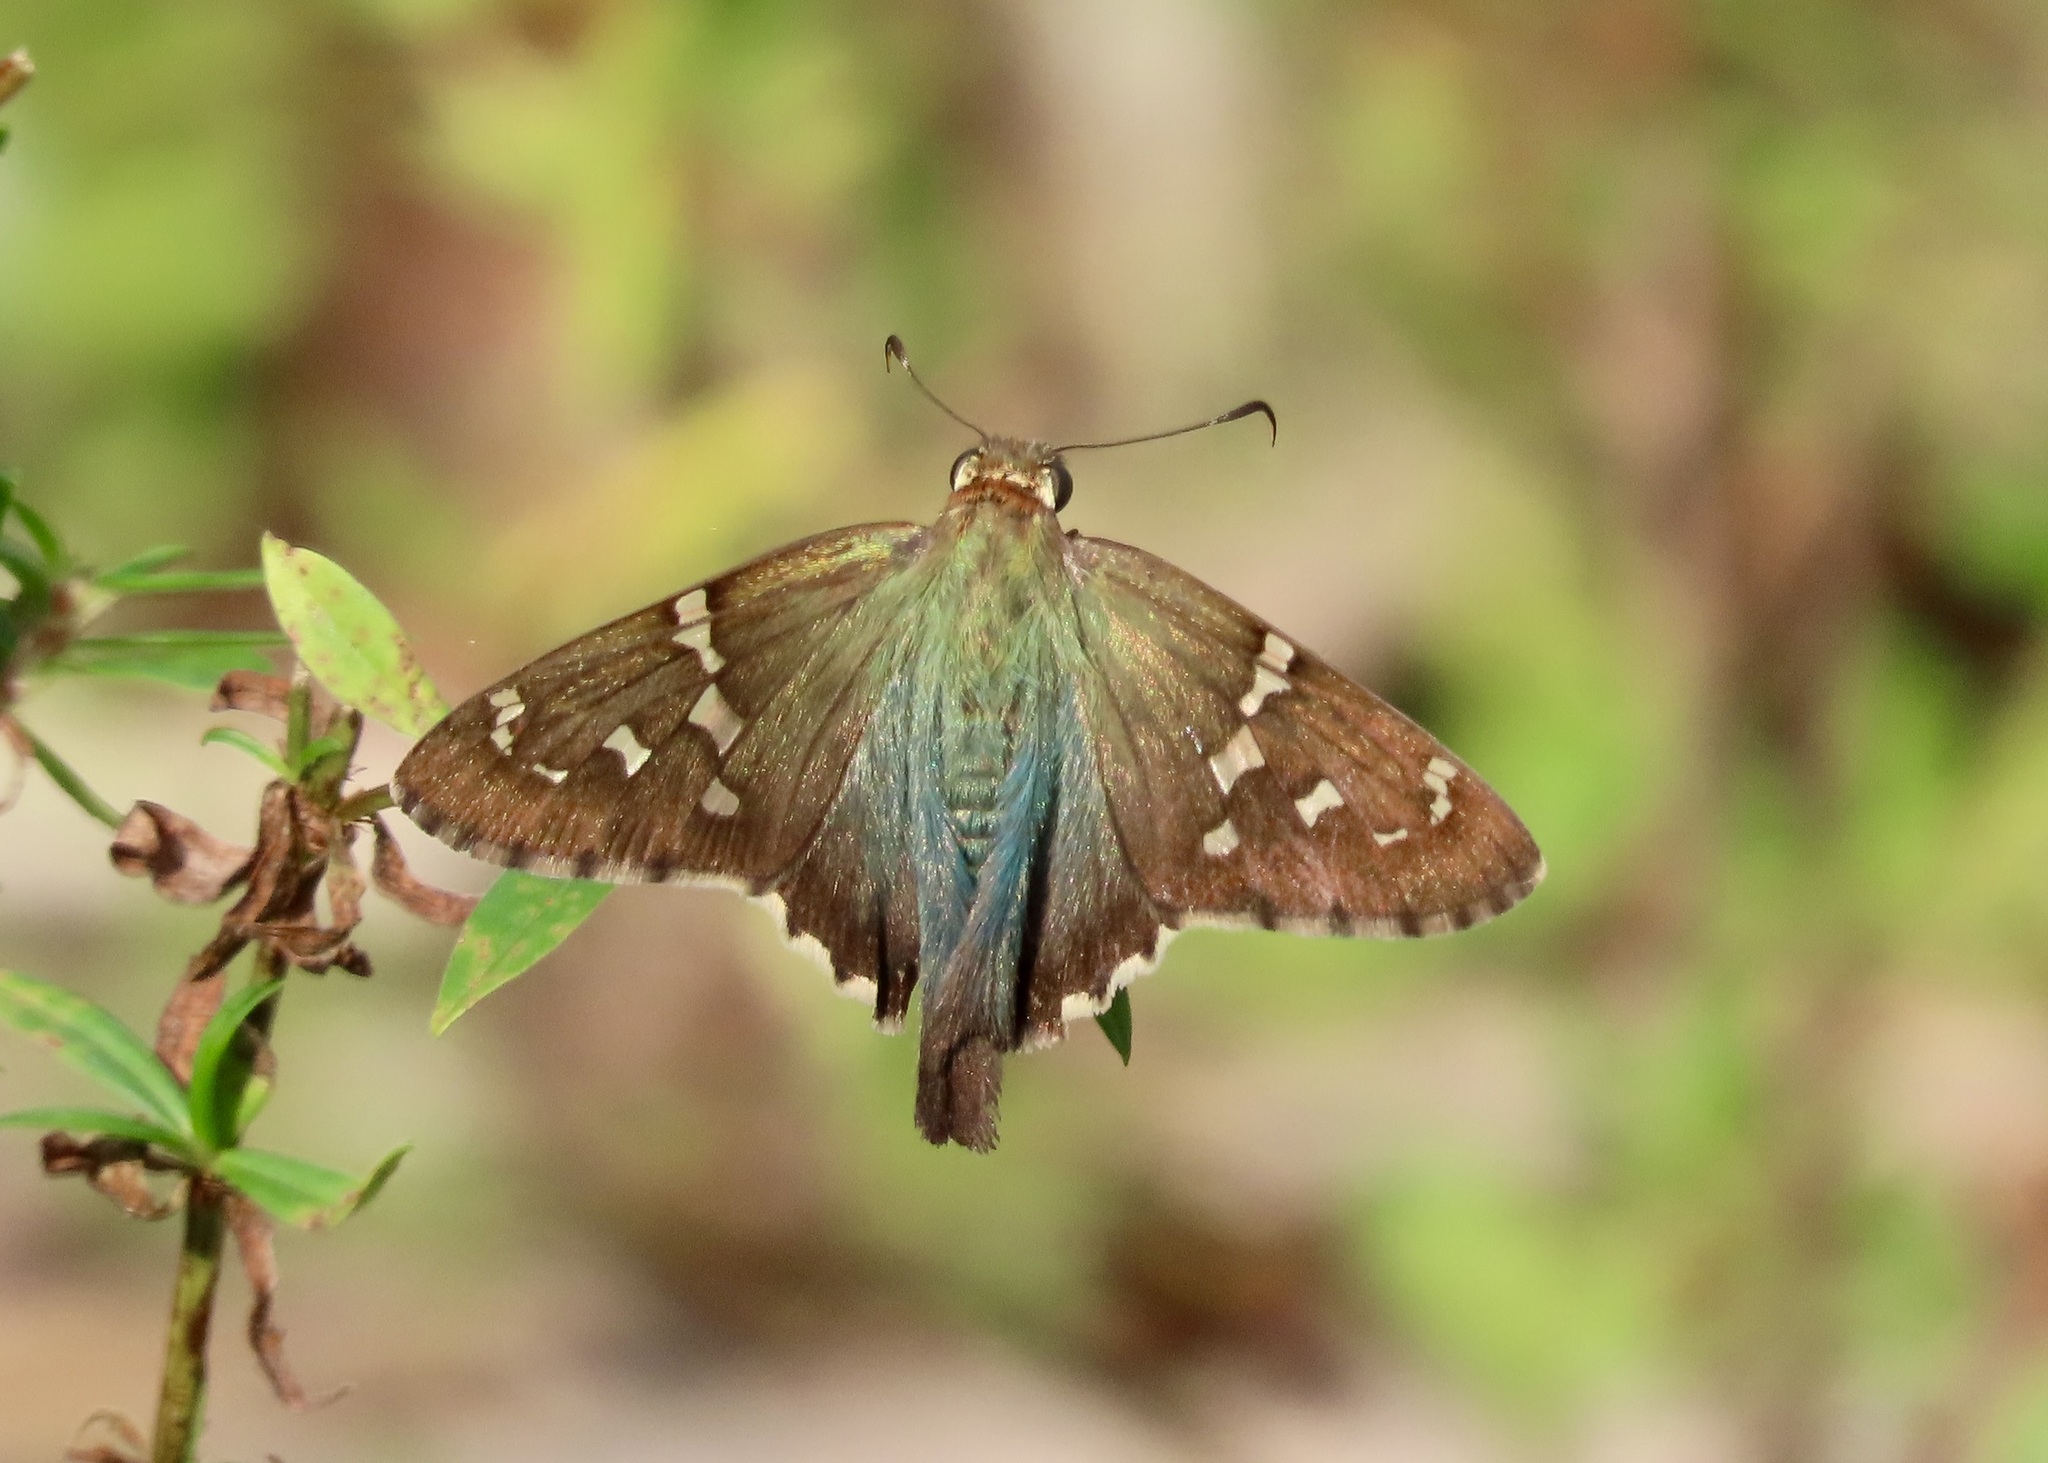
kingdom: Animalia
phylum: Arthropoda
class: Insecta
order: Lepidoptera
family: Hesperiidae
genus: Urbanus
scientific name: Urbanus proteus
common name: Long-tailed skipper
